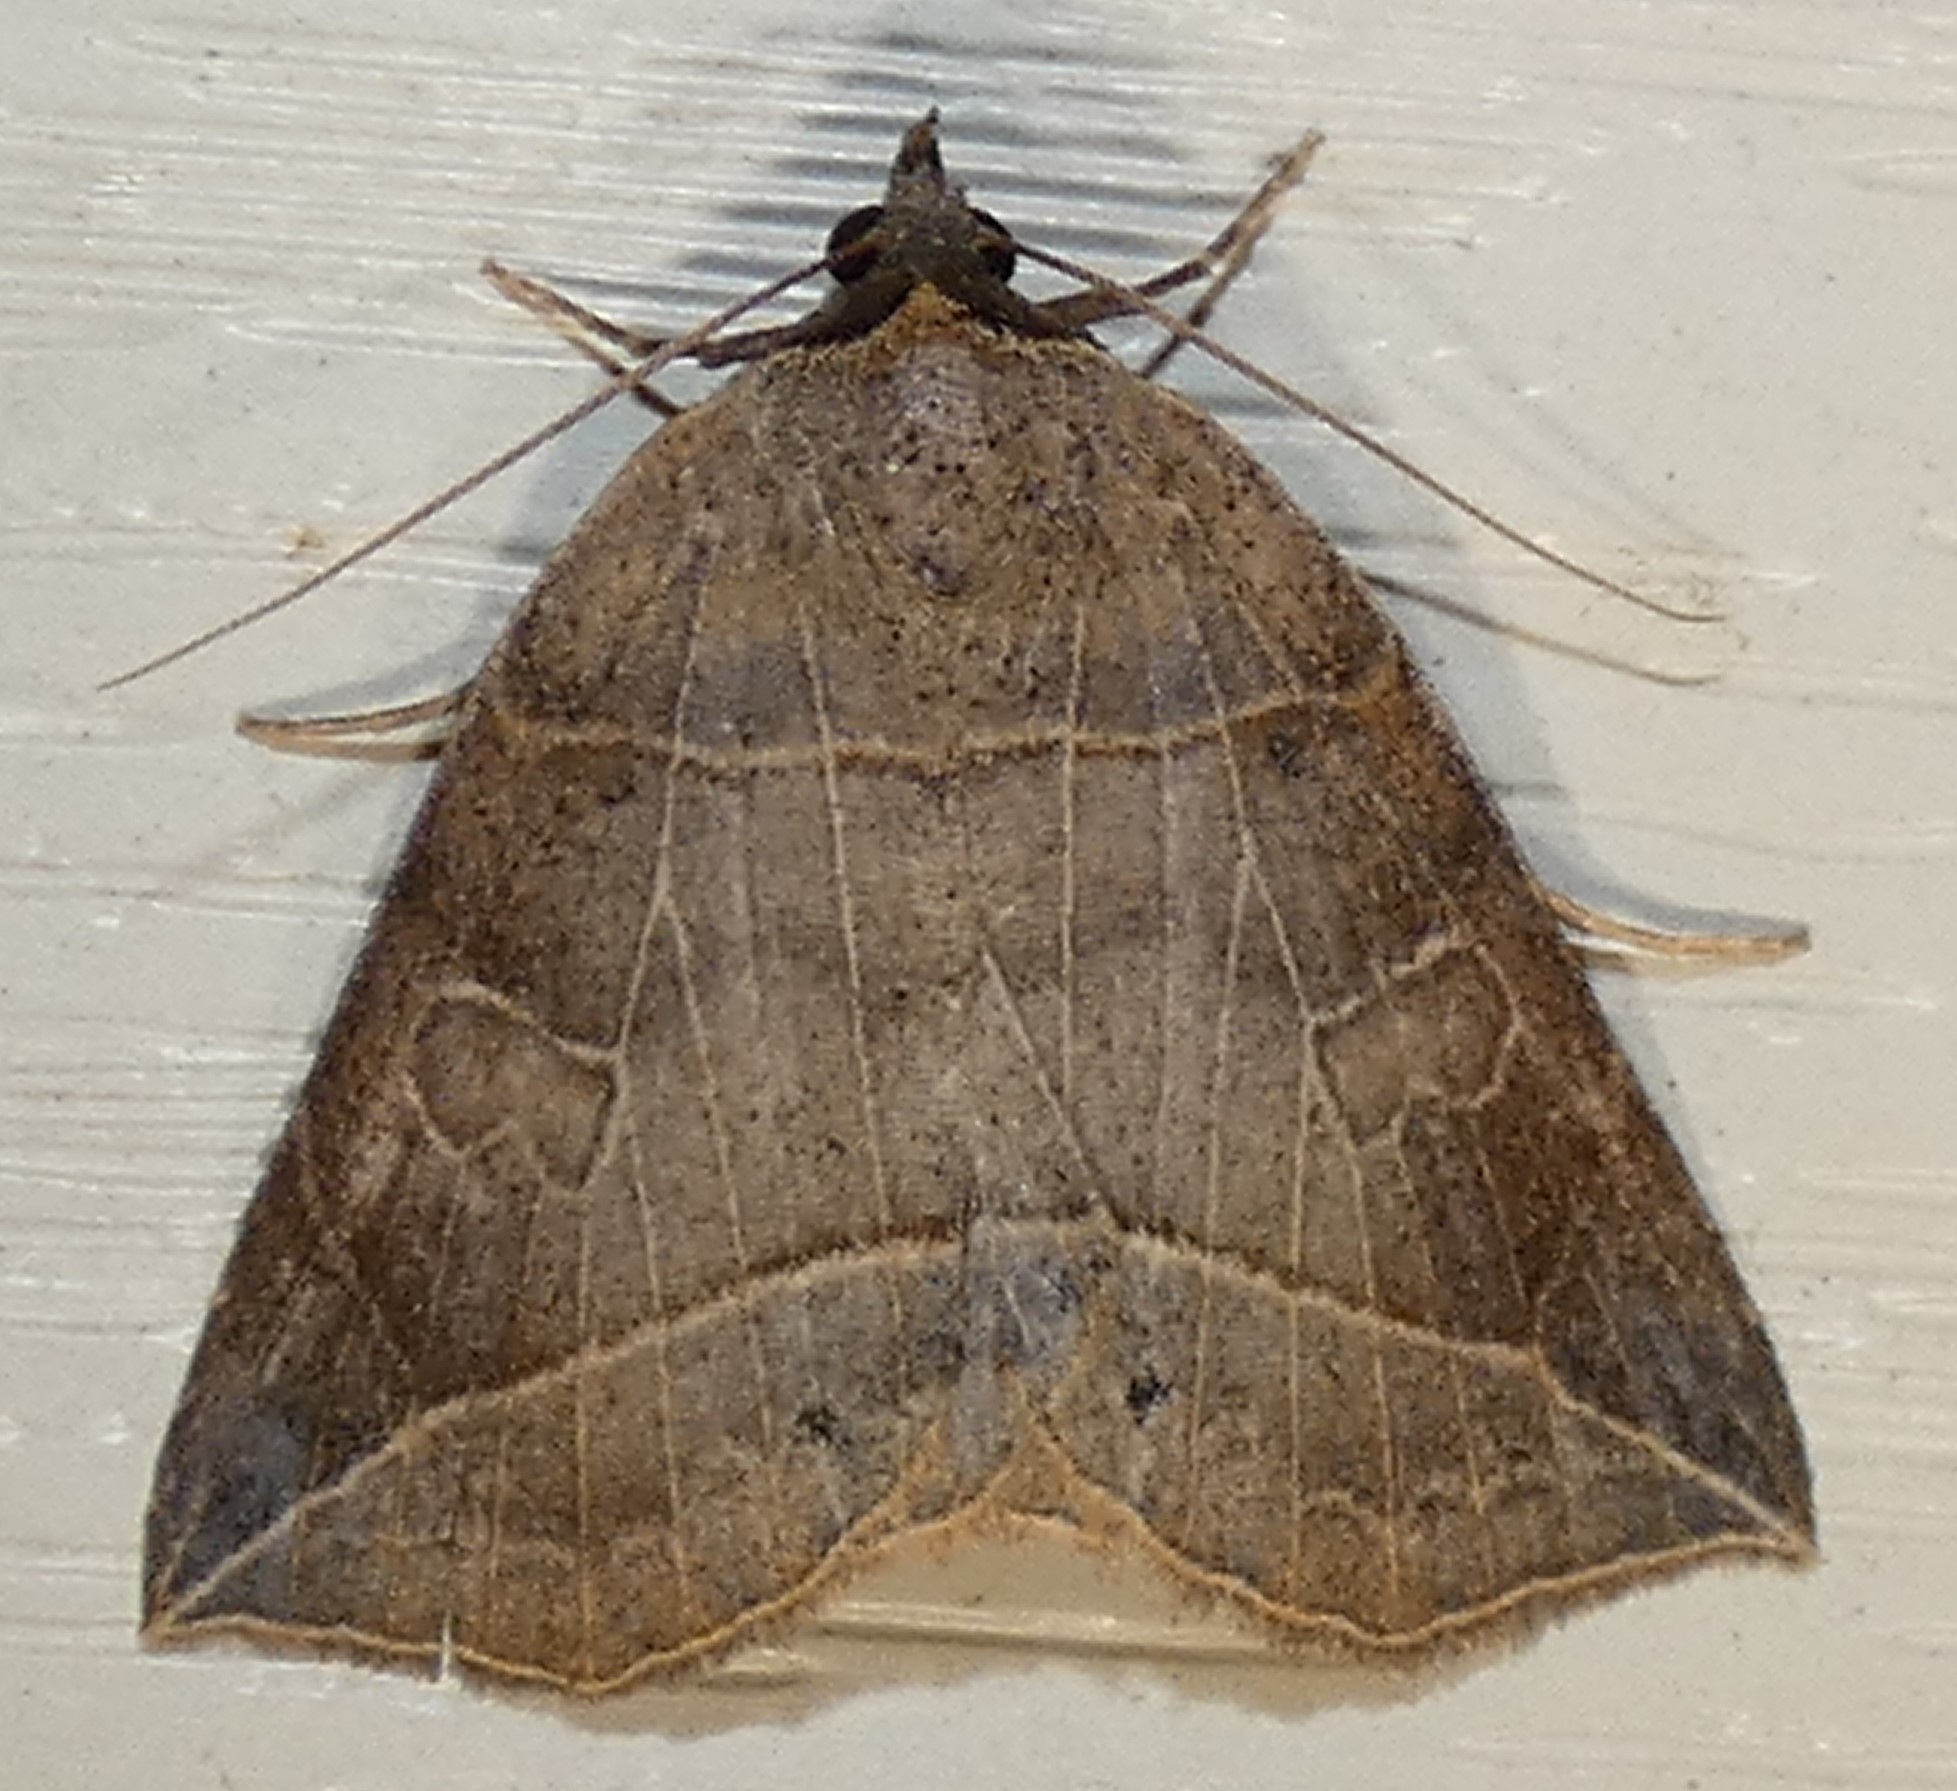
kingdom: Animalia
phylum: Arthropoda
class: Insecta
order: Lepidoptera
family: Erebidae
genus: Isogona
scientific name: Isogona tenuis
